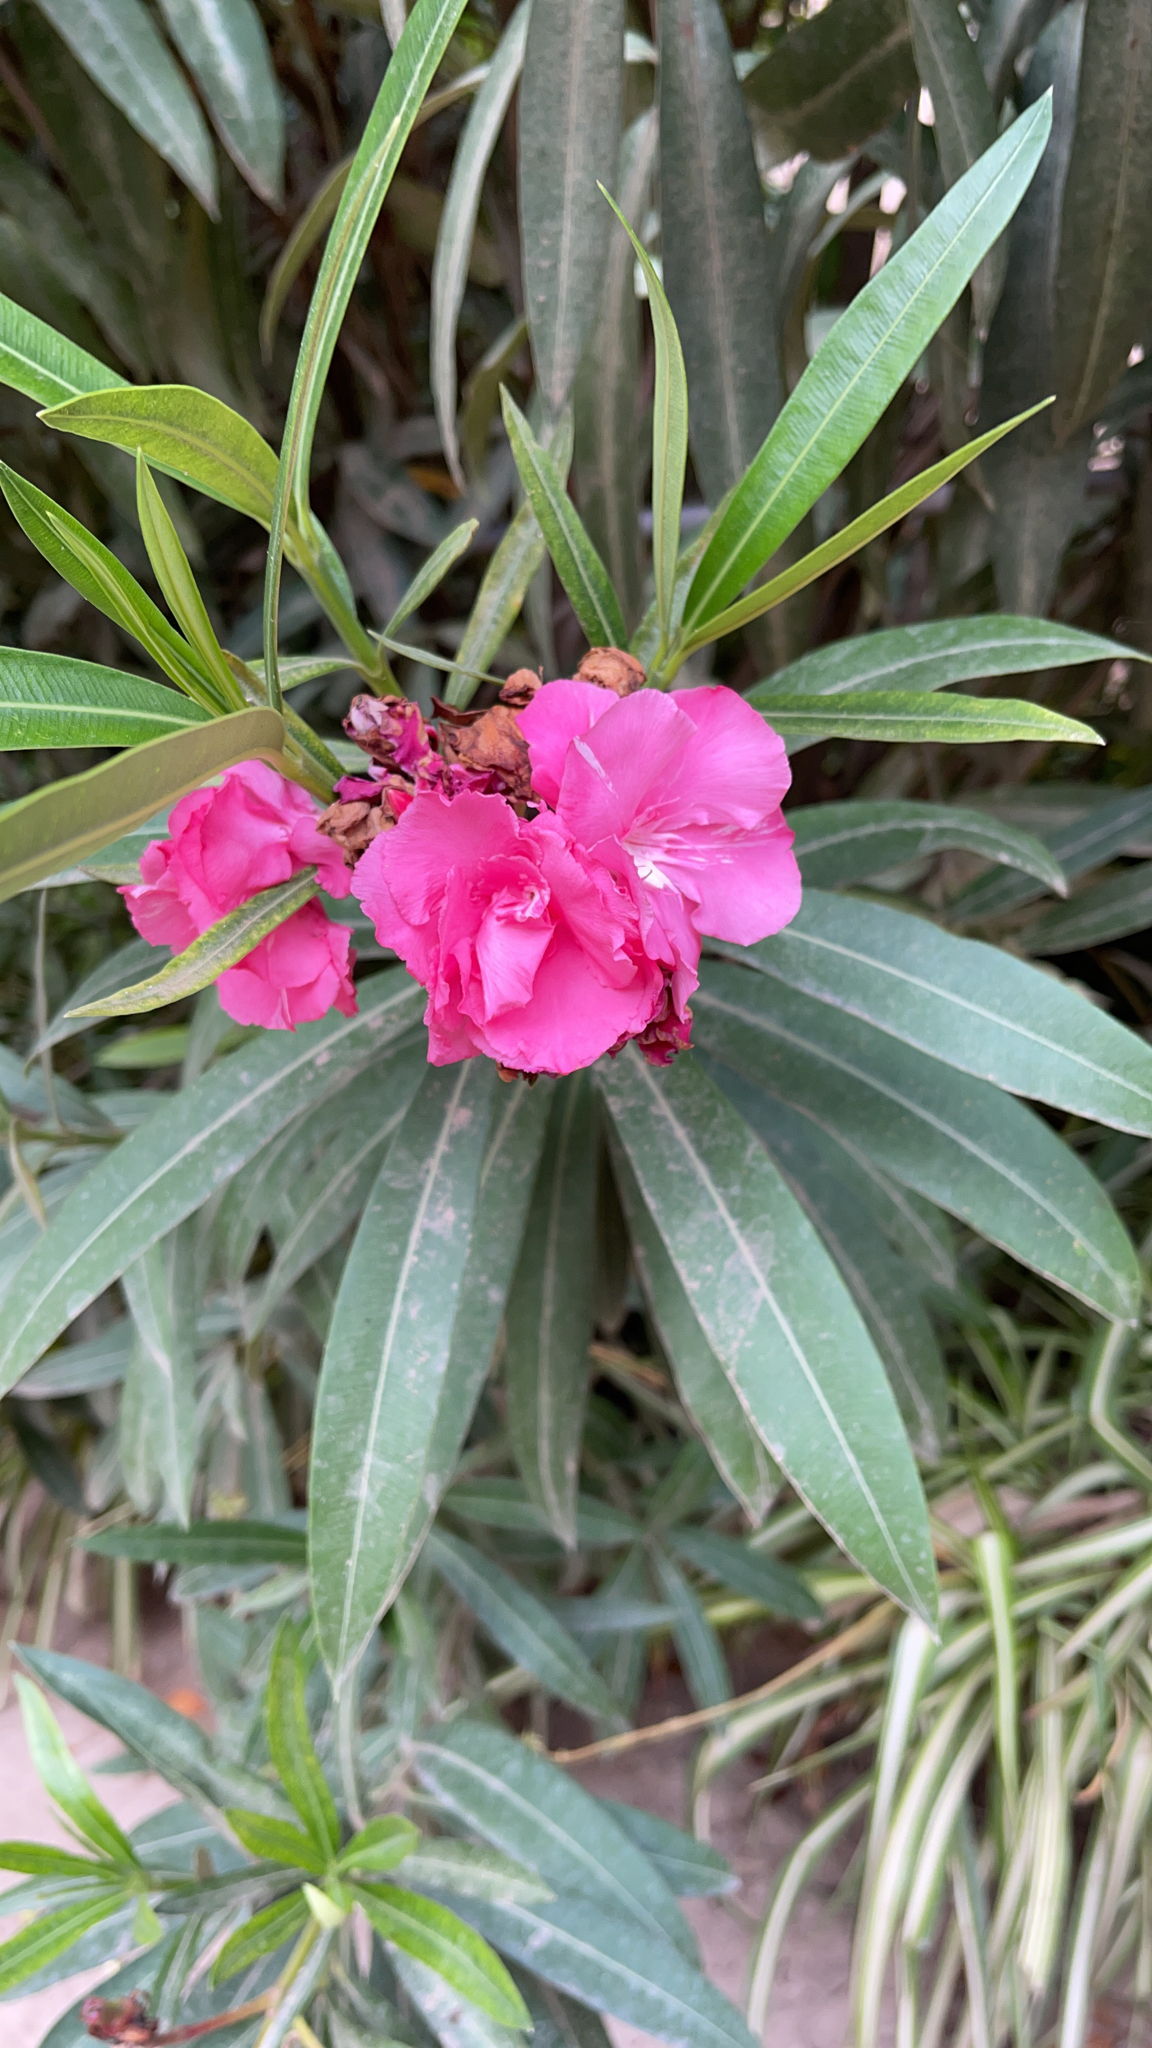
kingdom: Plantae
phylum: Tracheophyta
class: Magnoliopsida
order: Gentianales
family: Apocynaceae
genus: Nerium
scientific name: Nerium oleander
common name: Oleander
